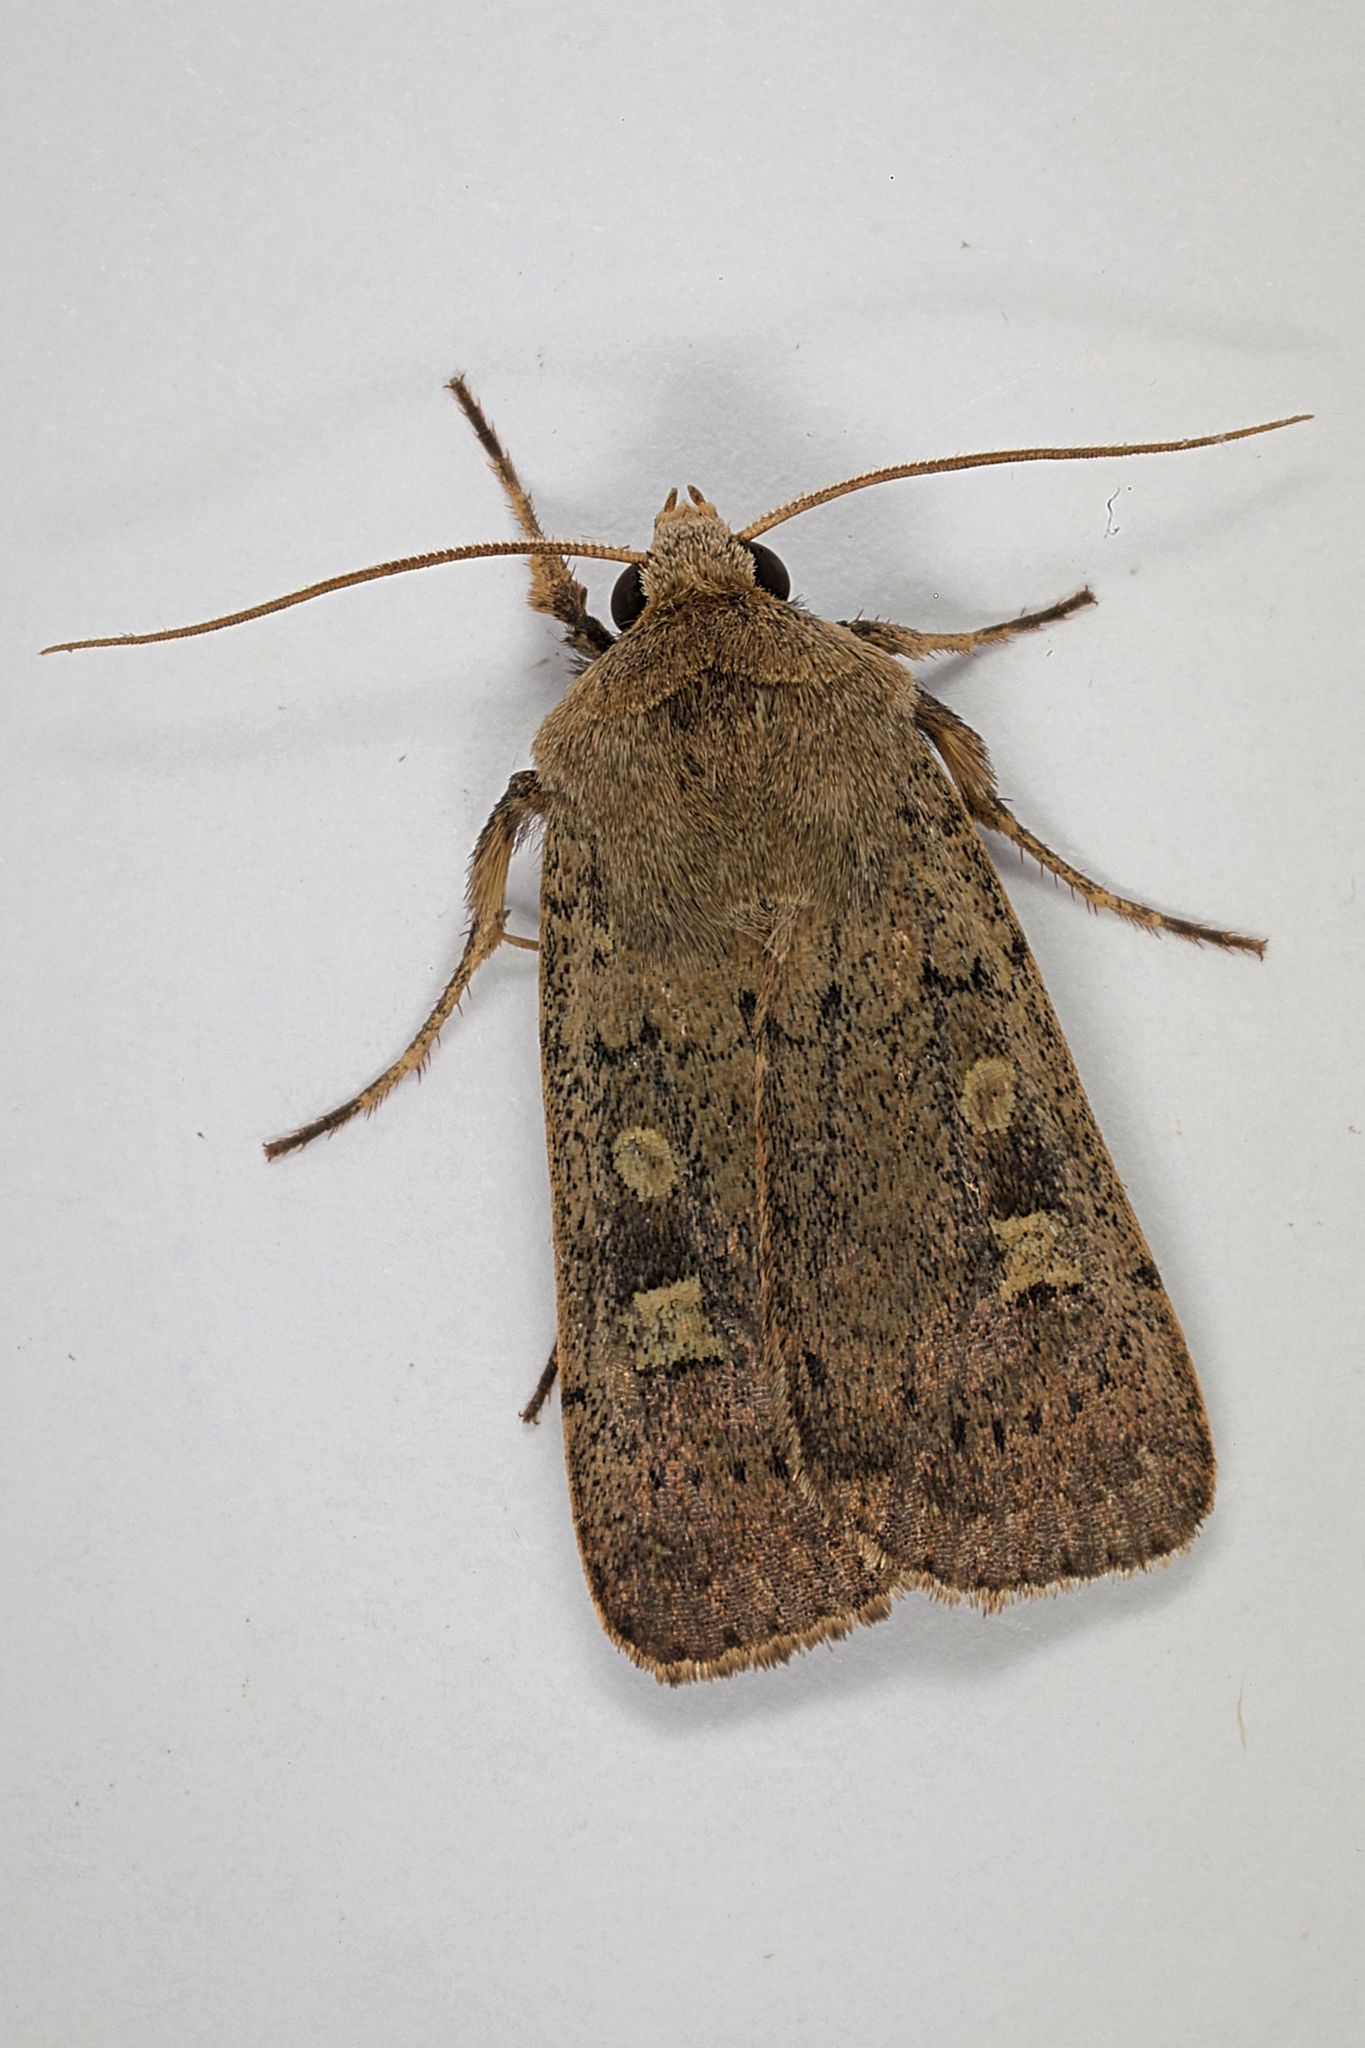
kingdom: Animalia
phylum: Arthropoda
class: Insecta
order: Lepidoptera
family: Noctuidae
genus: Xestia
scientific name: Xestia xanthographa
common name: Square-spot rustic
